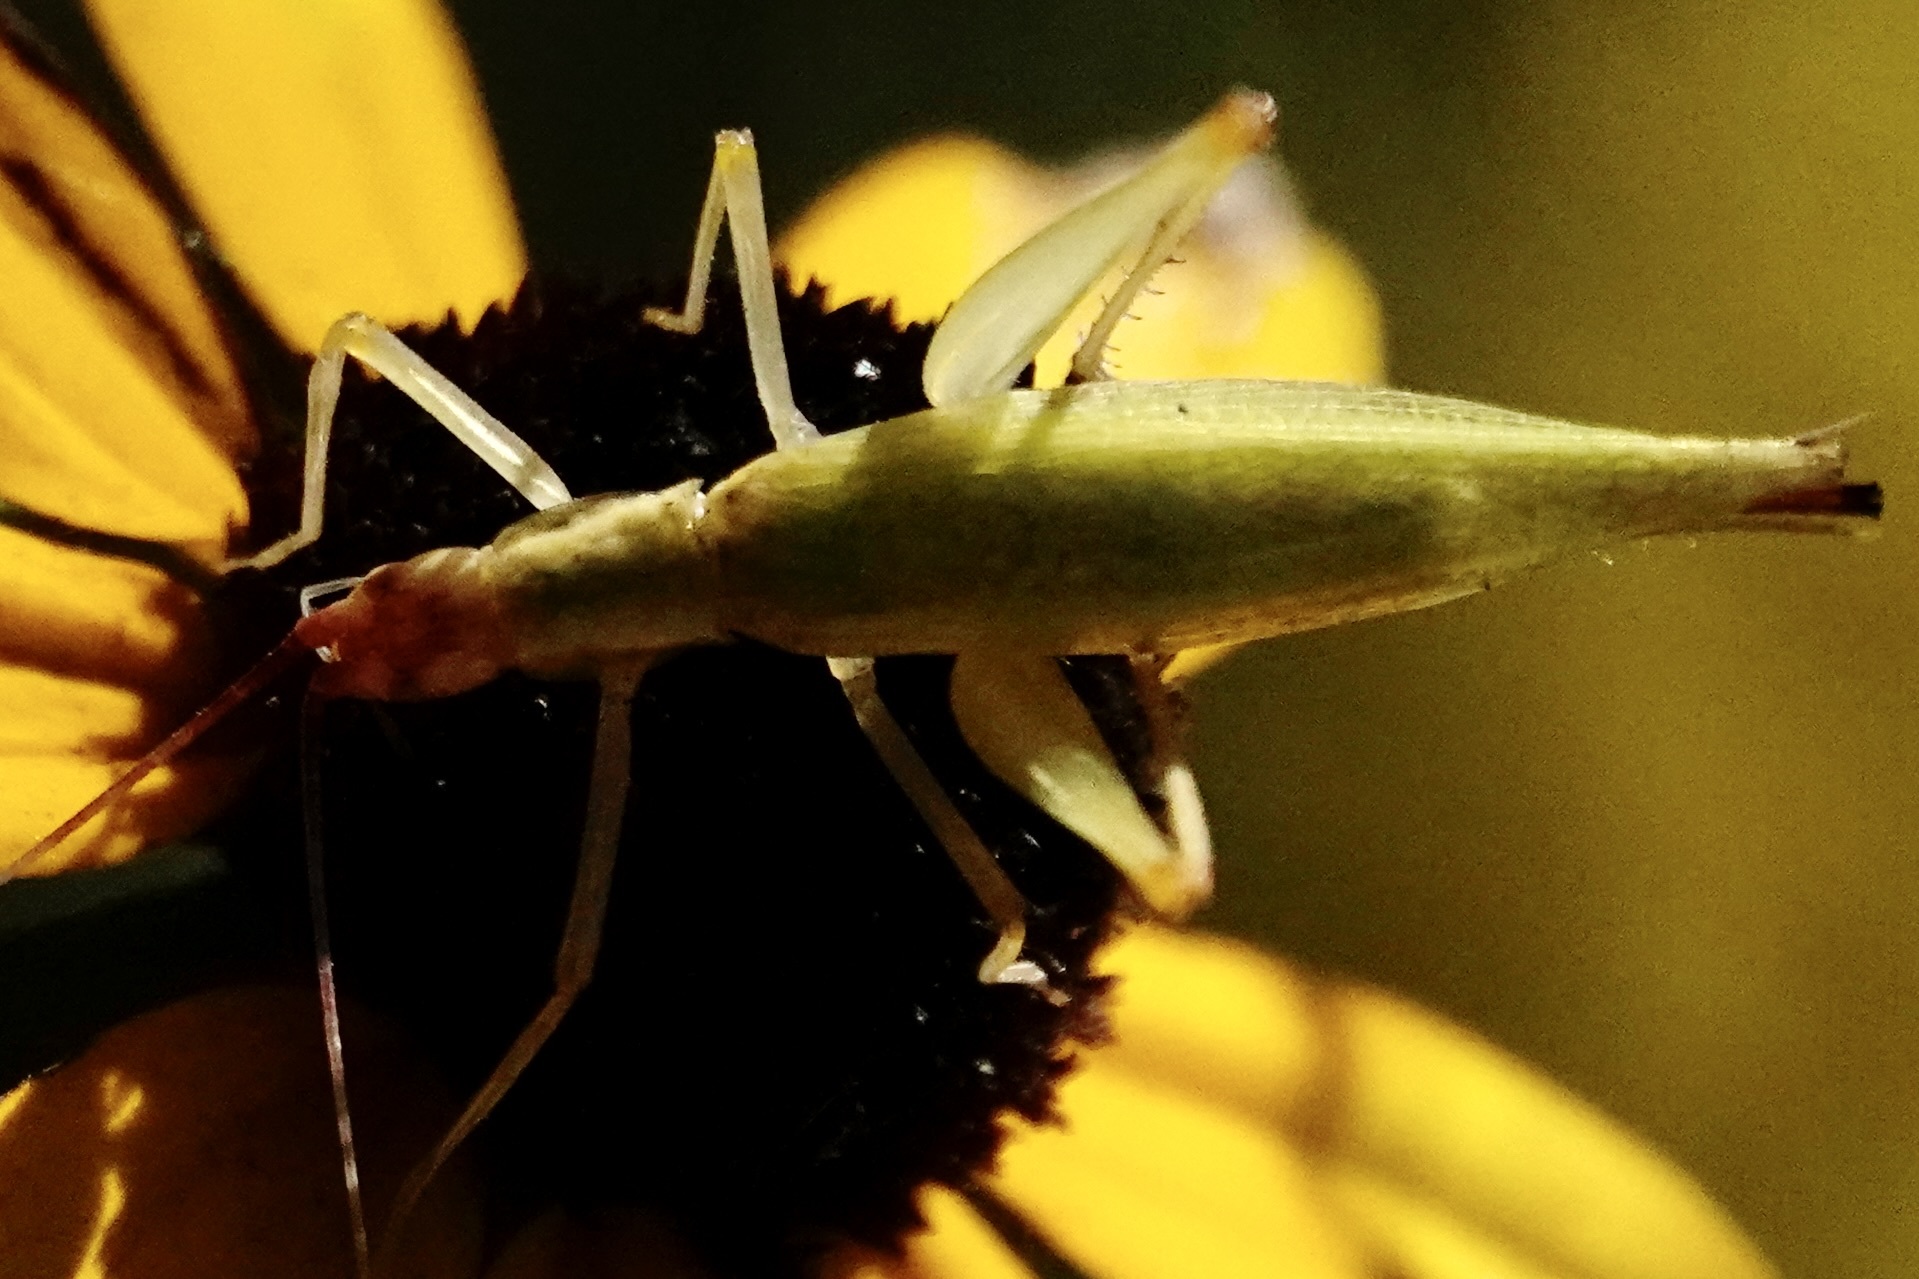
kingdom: Animalia
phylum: Arthropoda
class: Insecta
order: Orthoptera
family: Gryllidae
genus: Oecanthus
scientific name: Oecanthus latipennis
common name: Broad-winged tree cricket
